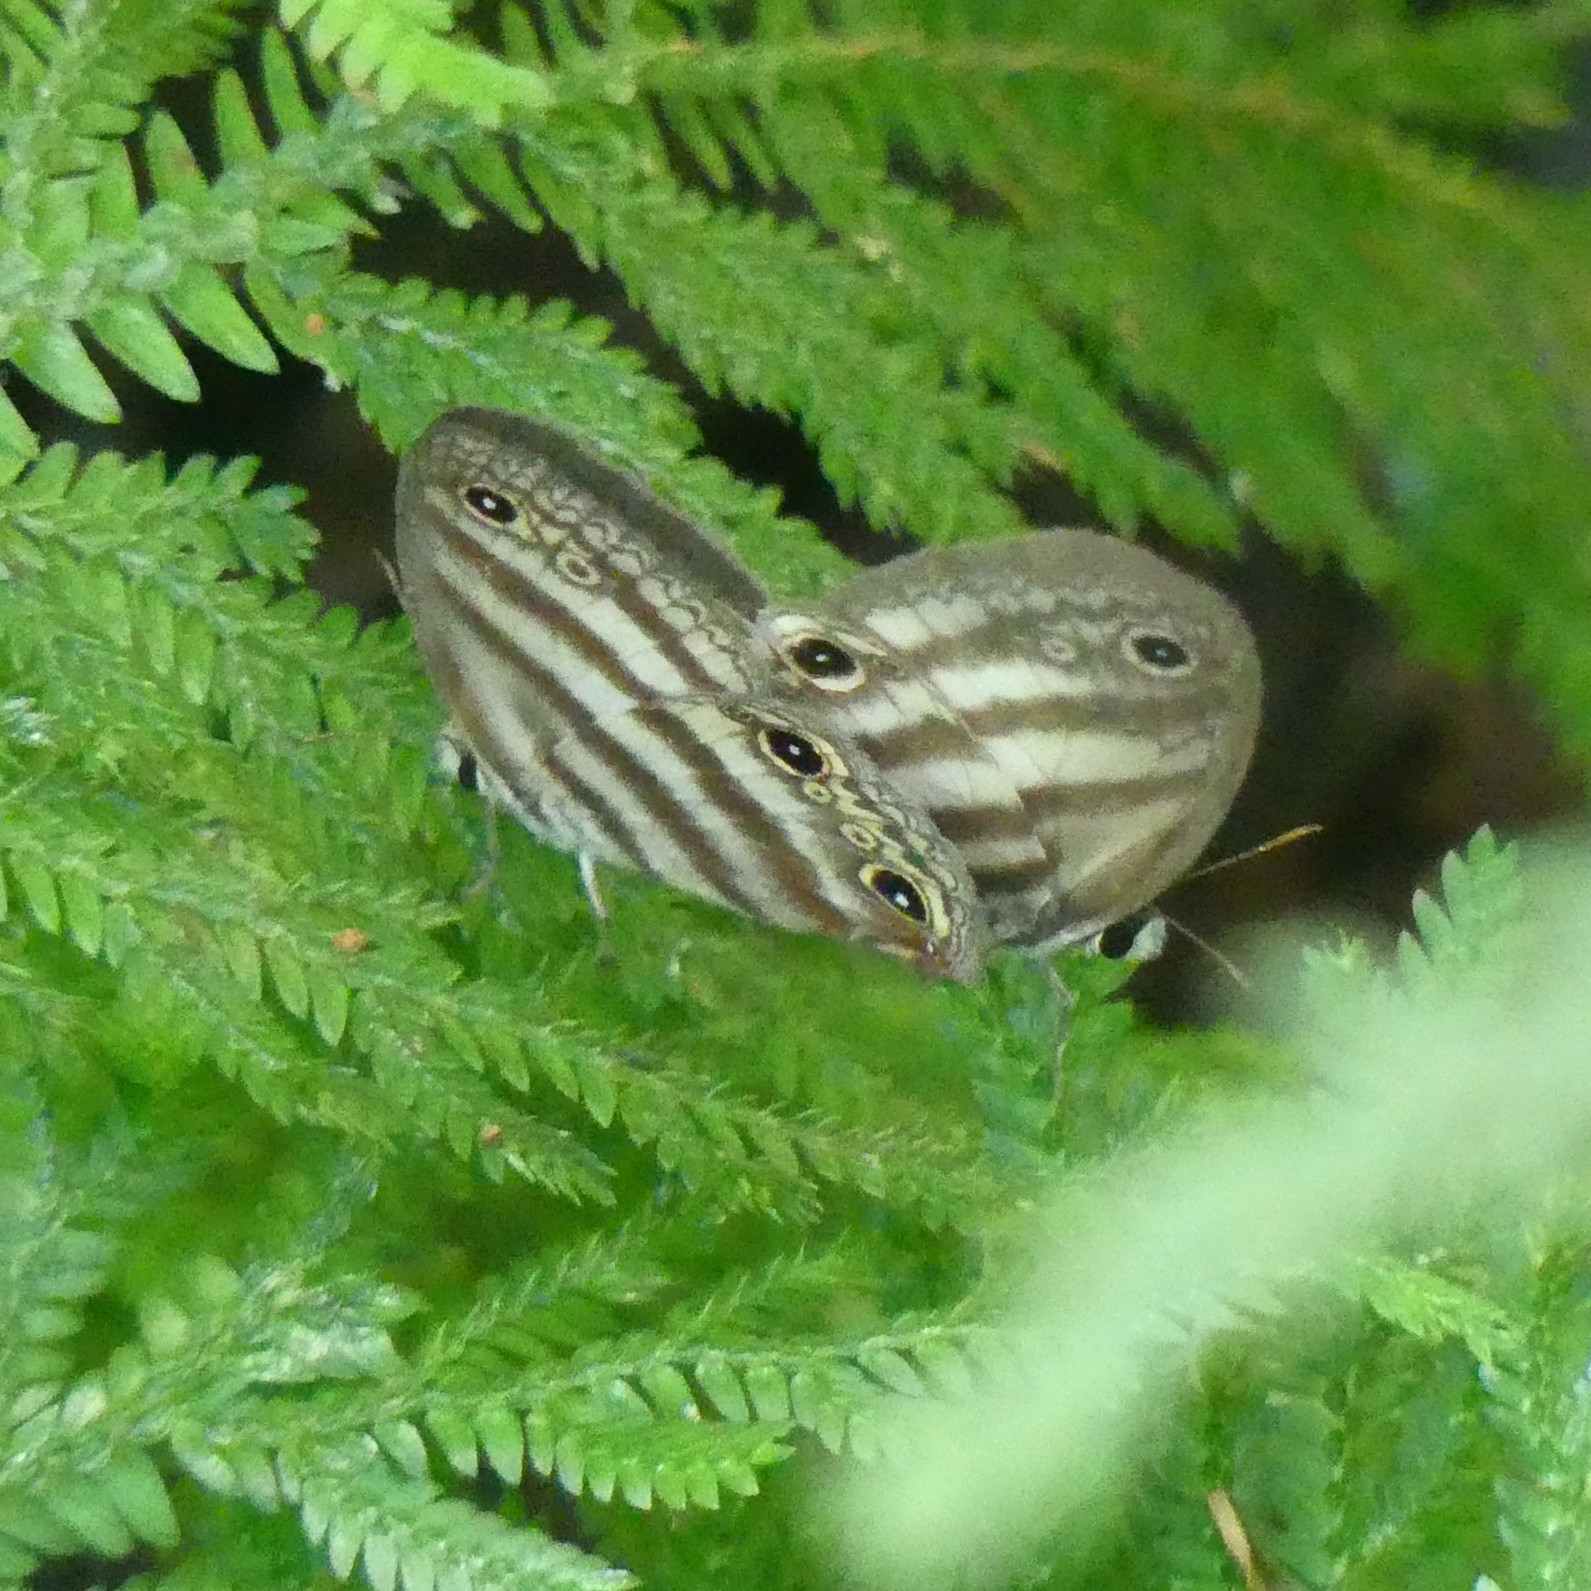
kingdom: Animalia
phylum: Arthropoda
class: Insecta
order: Lepidoptera
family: Nymphalidae
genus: Euptychia
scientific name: Euptychia mollina
